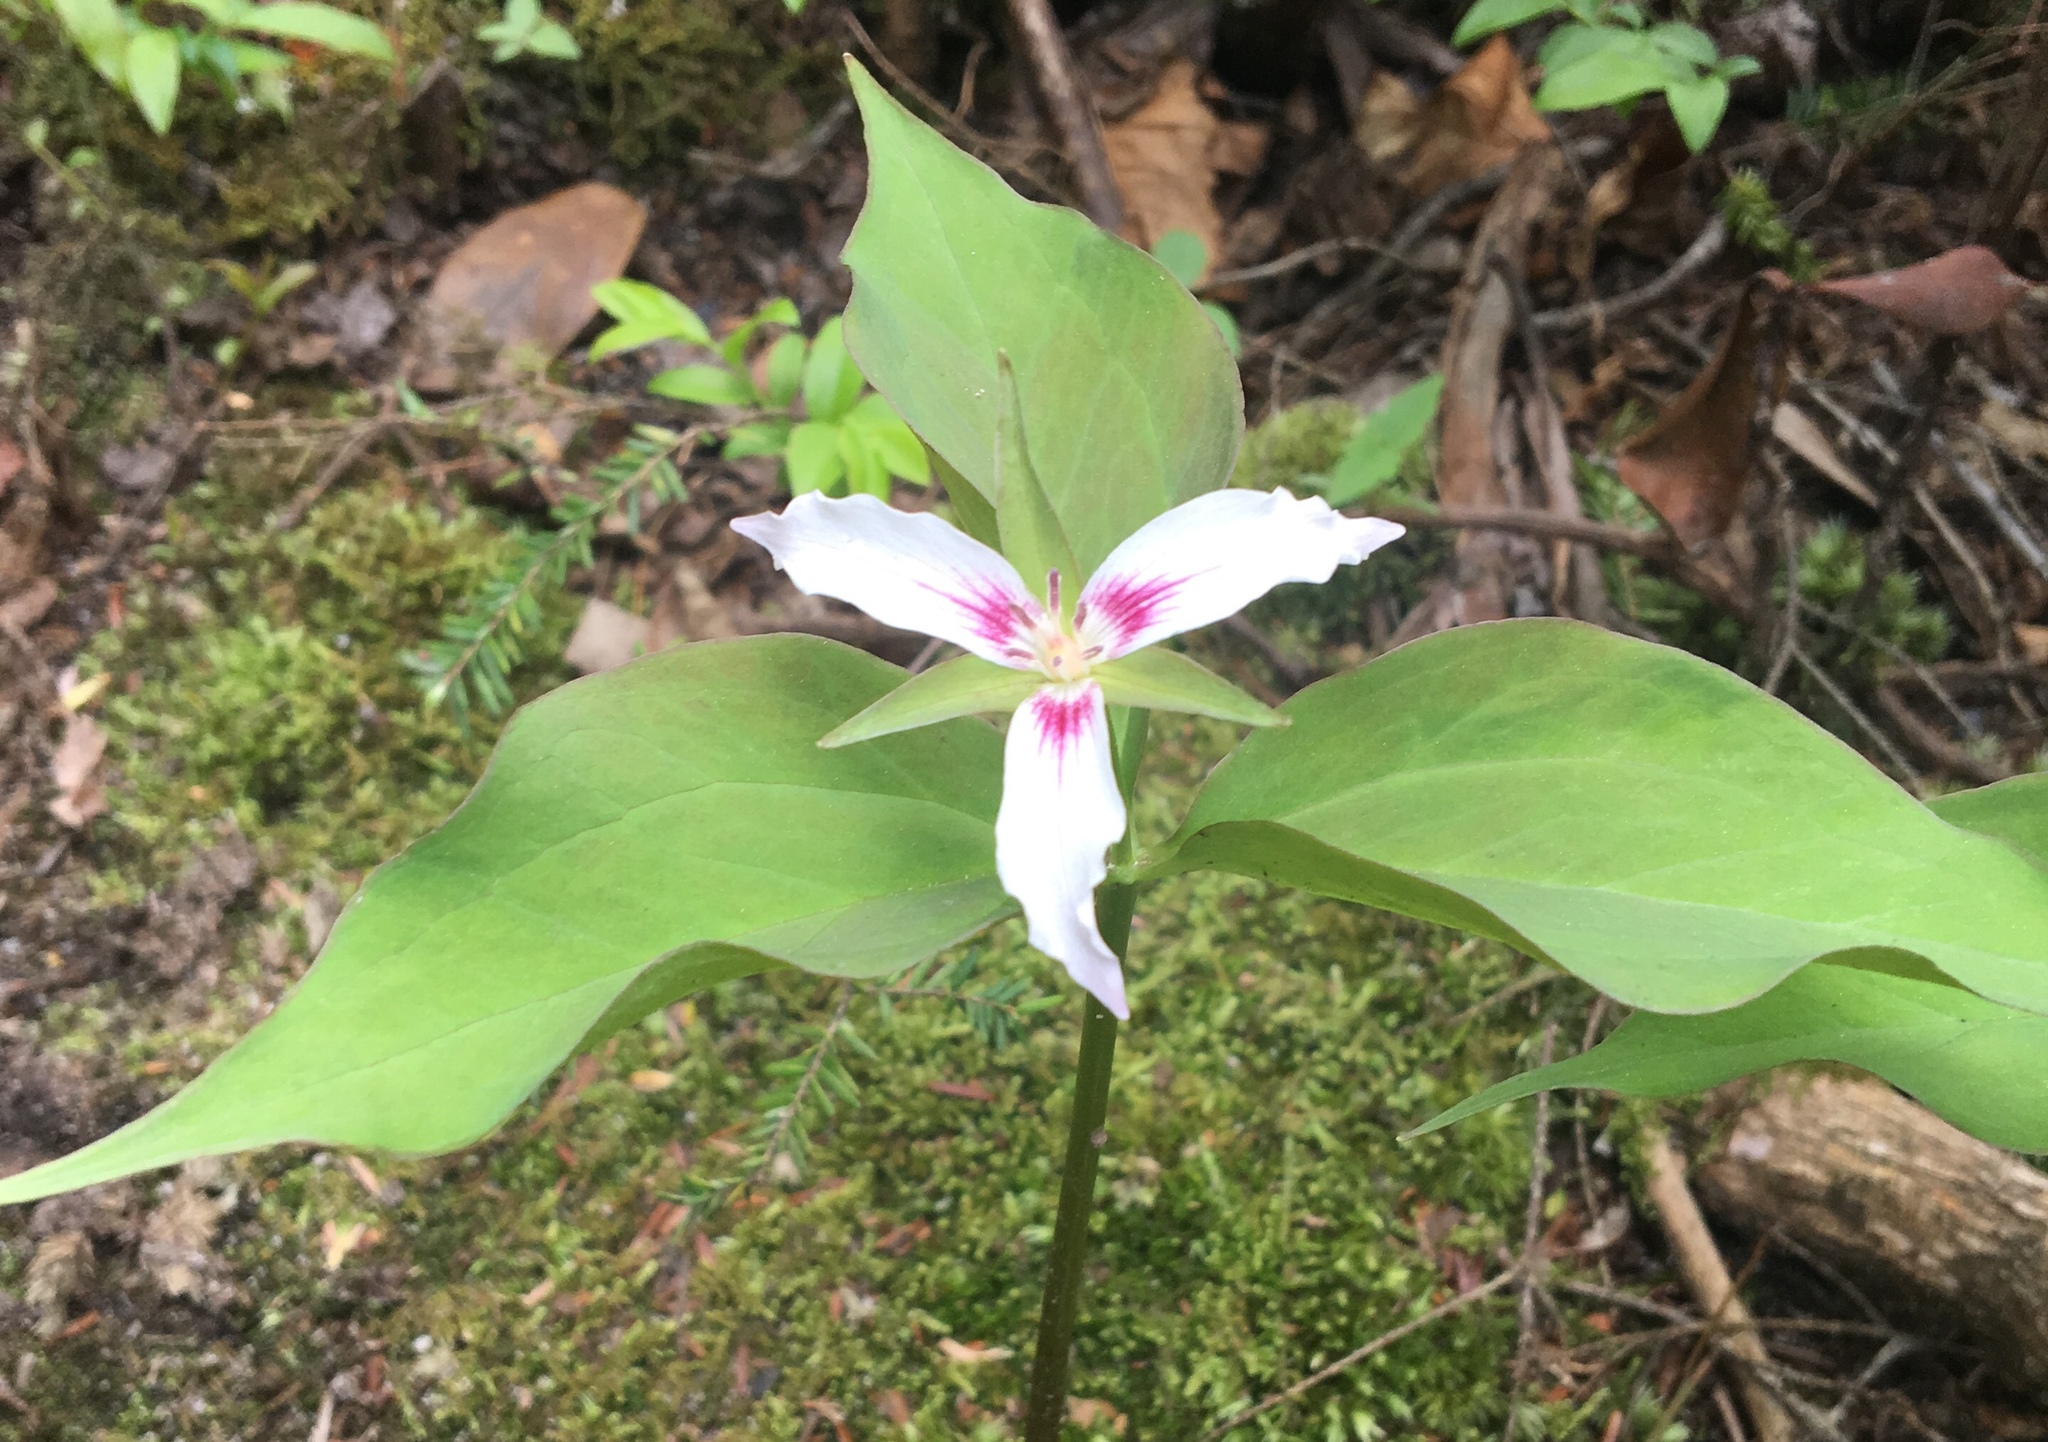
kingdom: Plantae
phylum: Tracheophyta
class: Liliopsida
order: Liliales
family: Melanthiaceae
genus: Trillium
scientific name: Trillium undulatum
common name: Paint trillium
